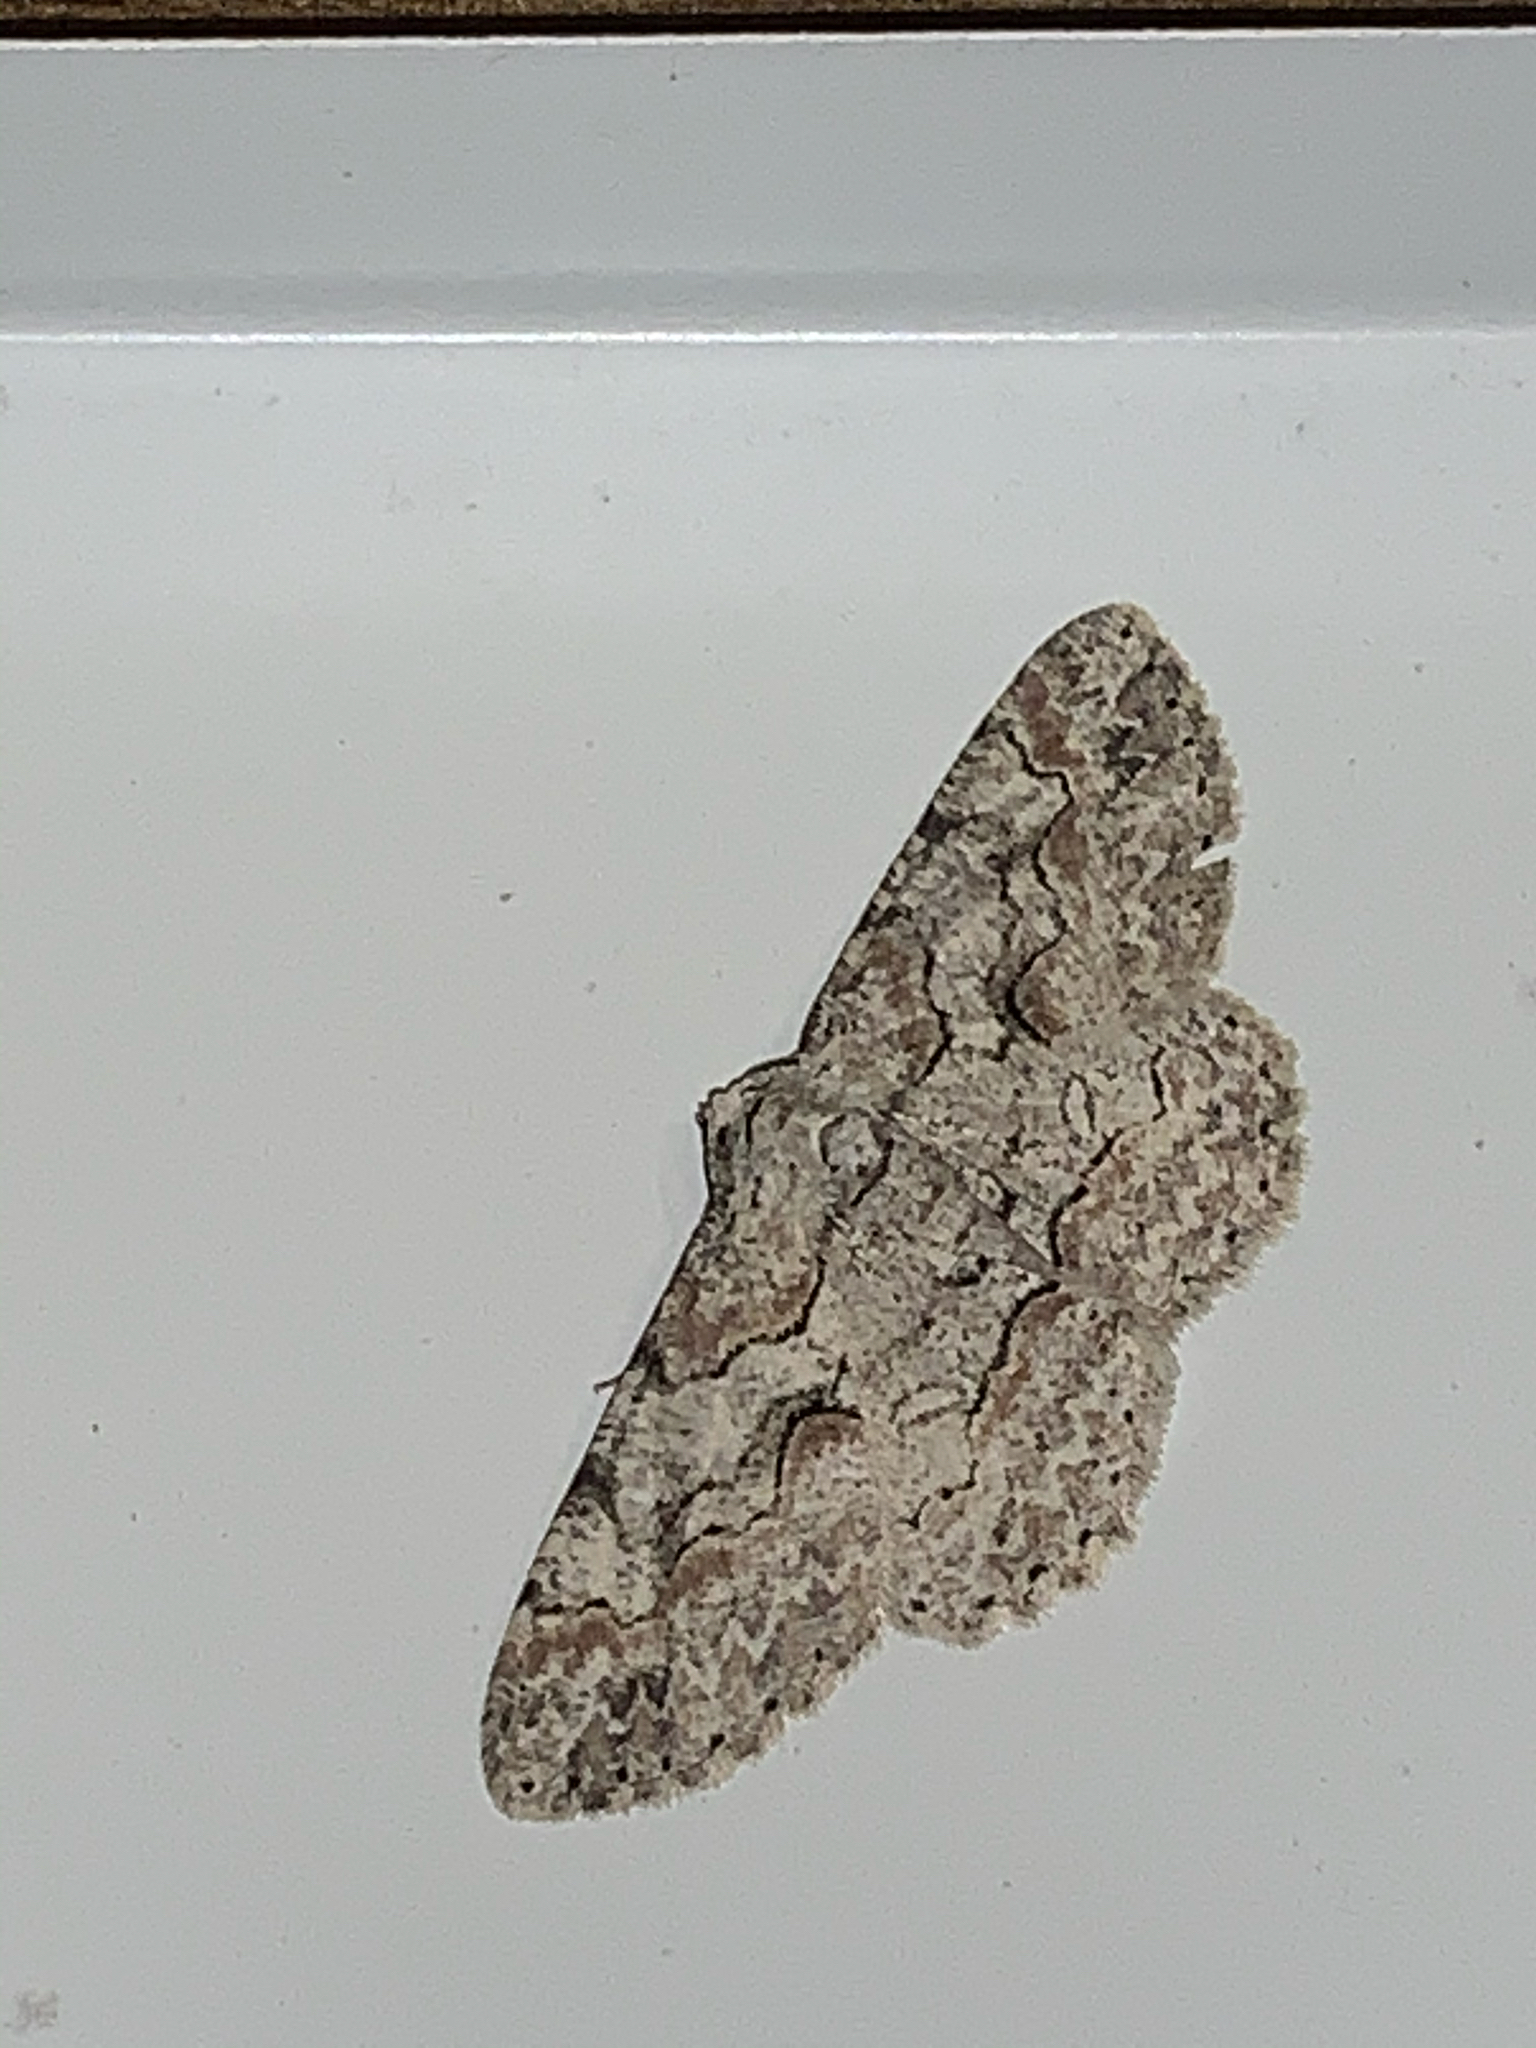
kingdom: Animalia
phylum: Arthropoda
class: Insecta
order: Lepidoptera
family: Geometridae
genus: Iridopsis
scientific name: Iridopsis defectaria
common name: Brown-shaded gray
